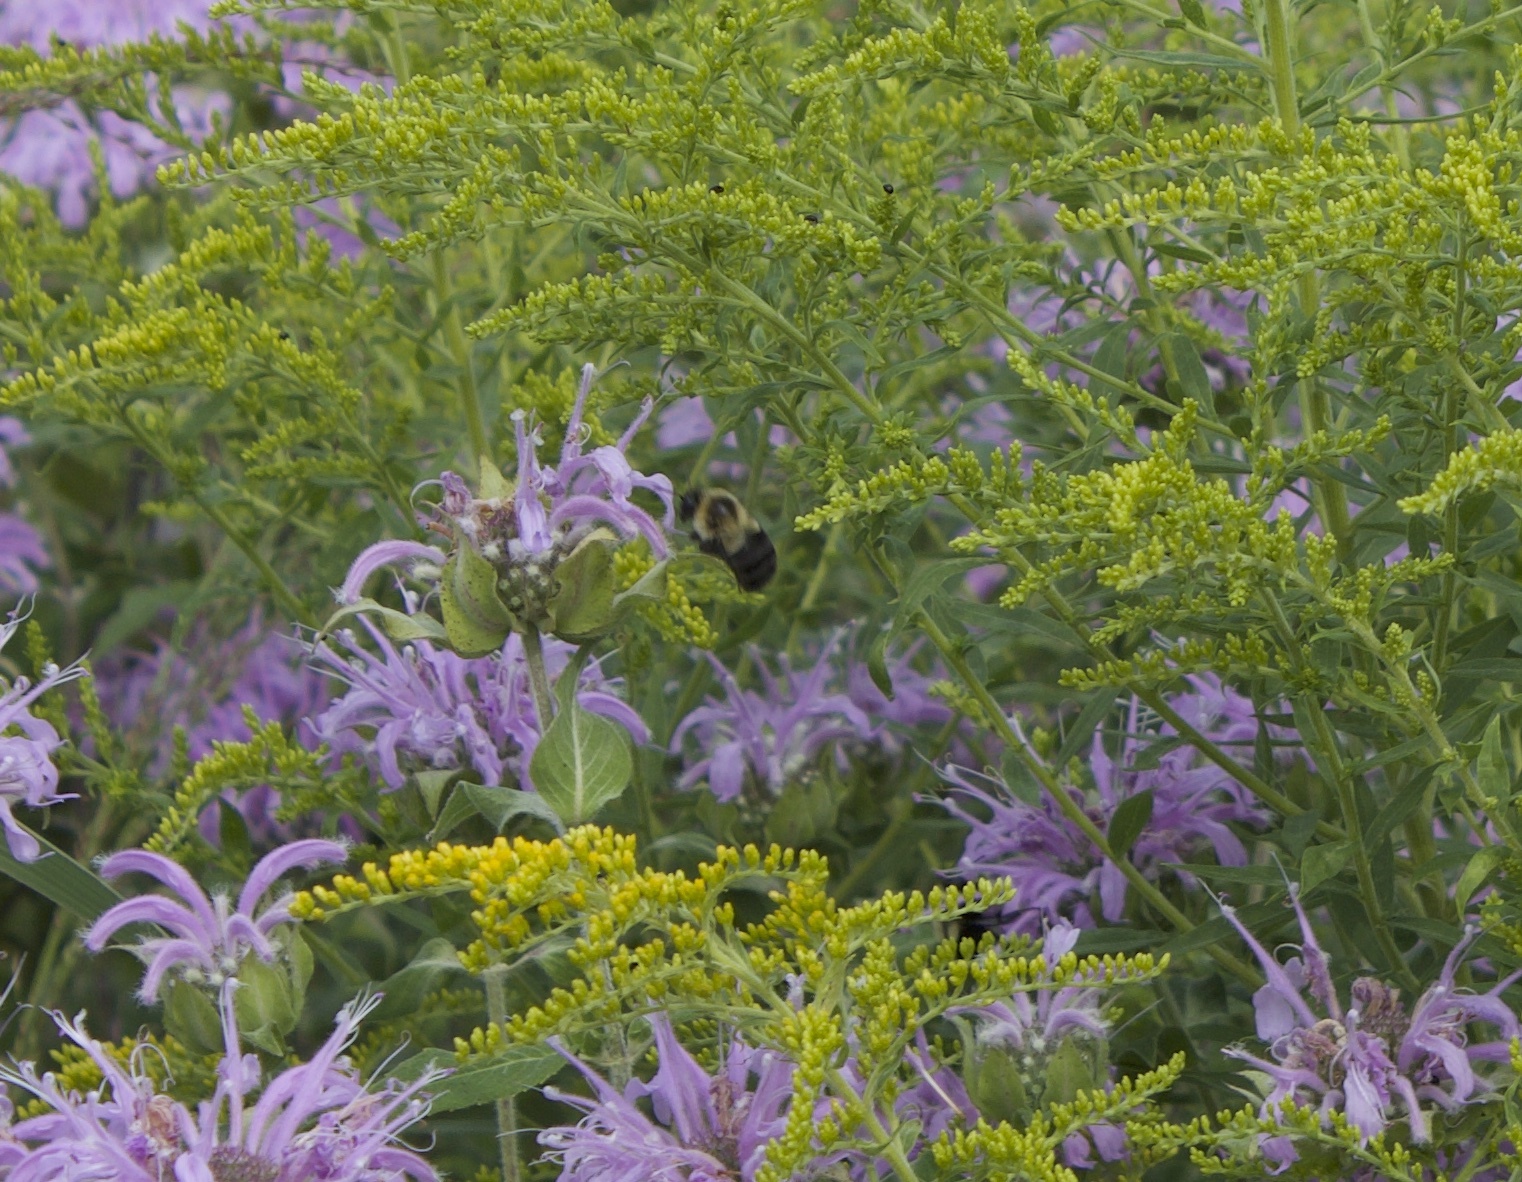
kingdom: Animalia
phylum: Arthropoda
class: Insecta
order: Hymenoptera
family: Apidae
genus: Bombus
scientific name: Bombus impatiens
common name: Common eastern bumble bee
